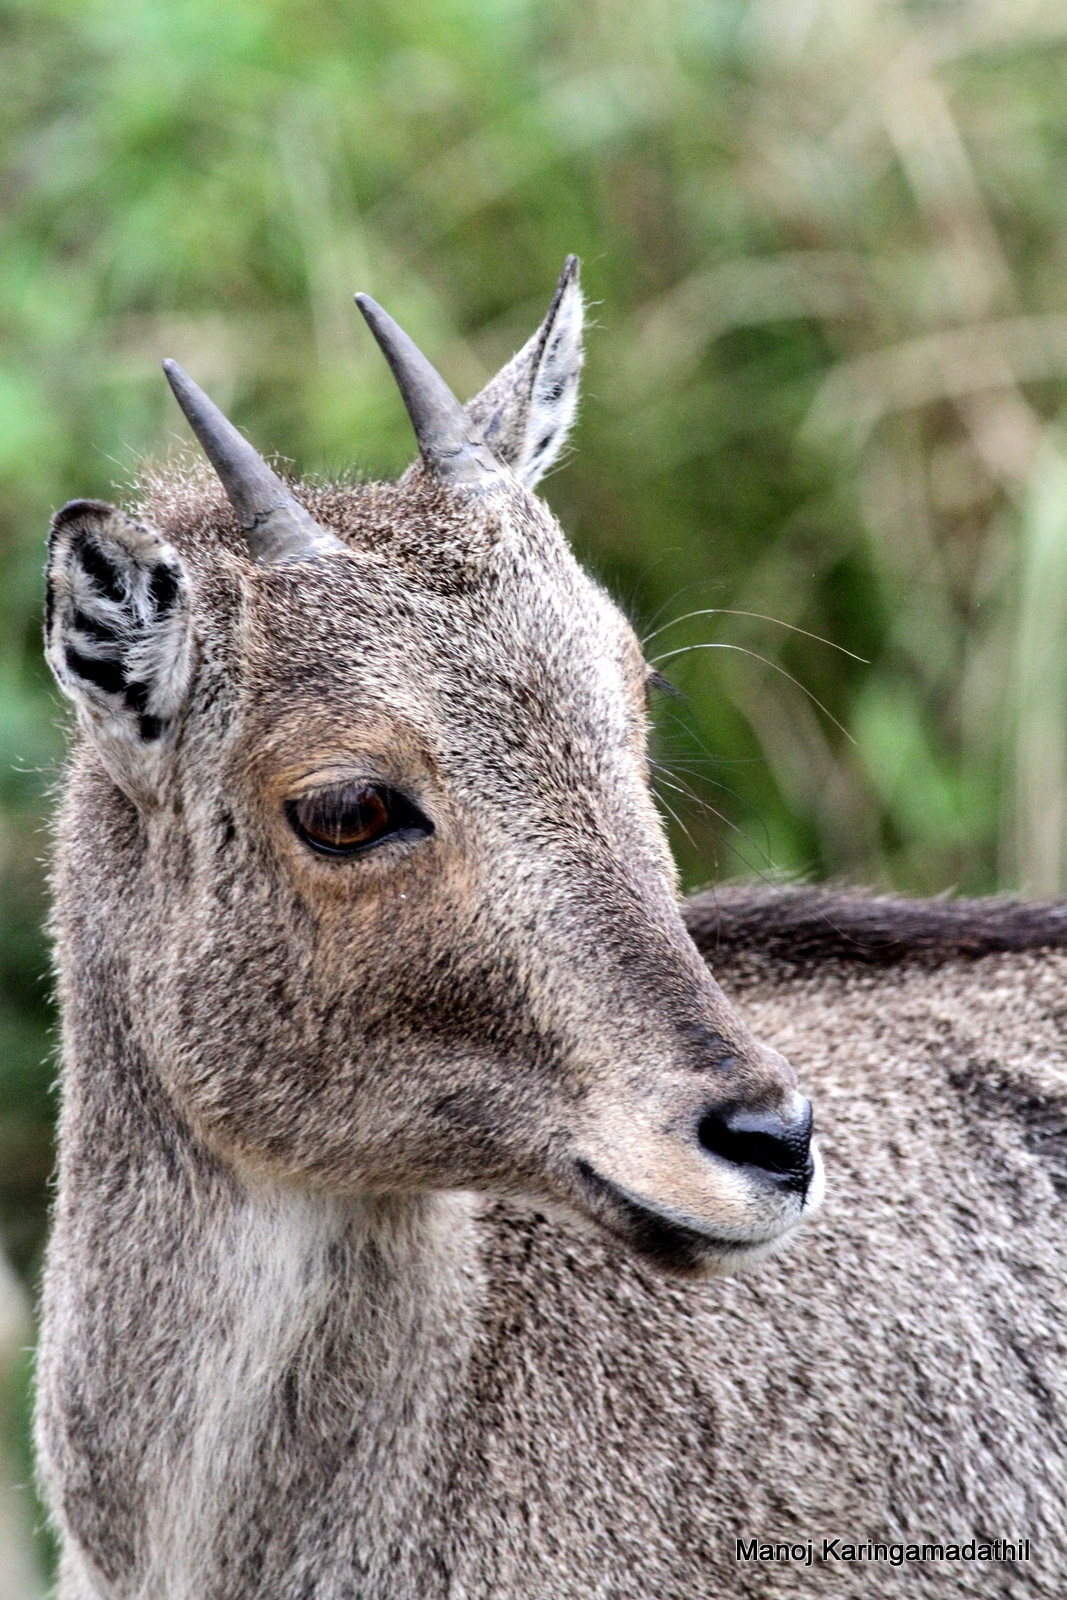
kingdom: Animalia
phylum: Chordata
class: Mammalia
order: Artiodactyla
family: Bovidae
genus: Hemitragus
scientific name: Hemitragus hylocrius
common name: Nilgiri tahr
